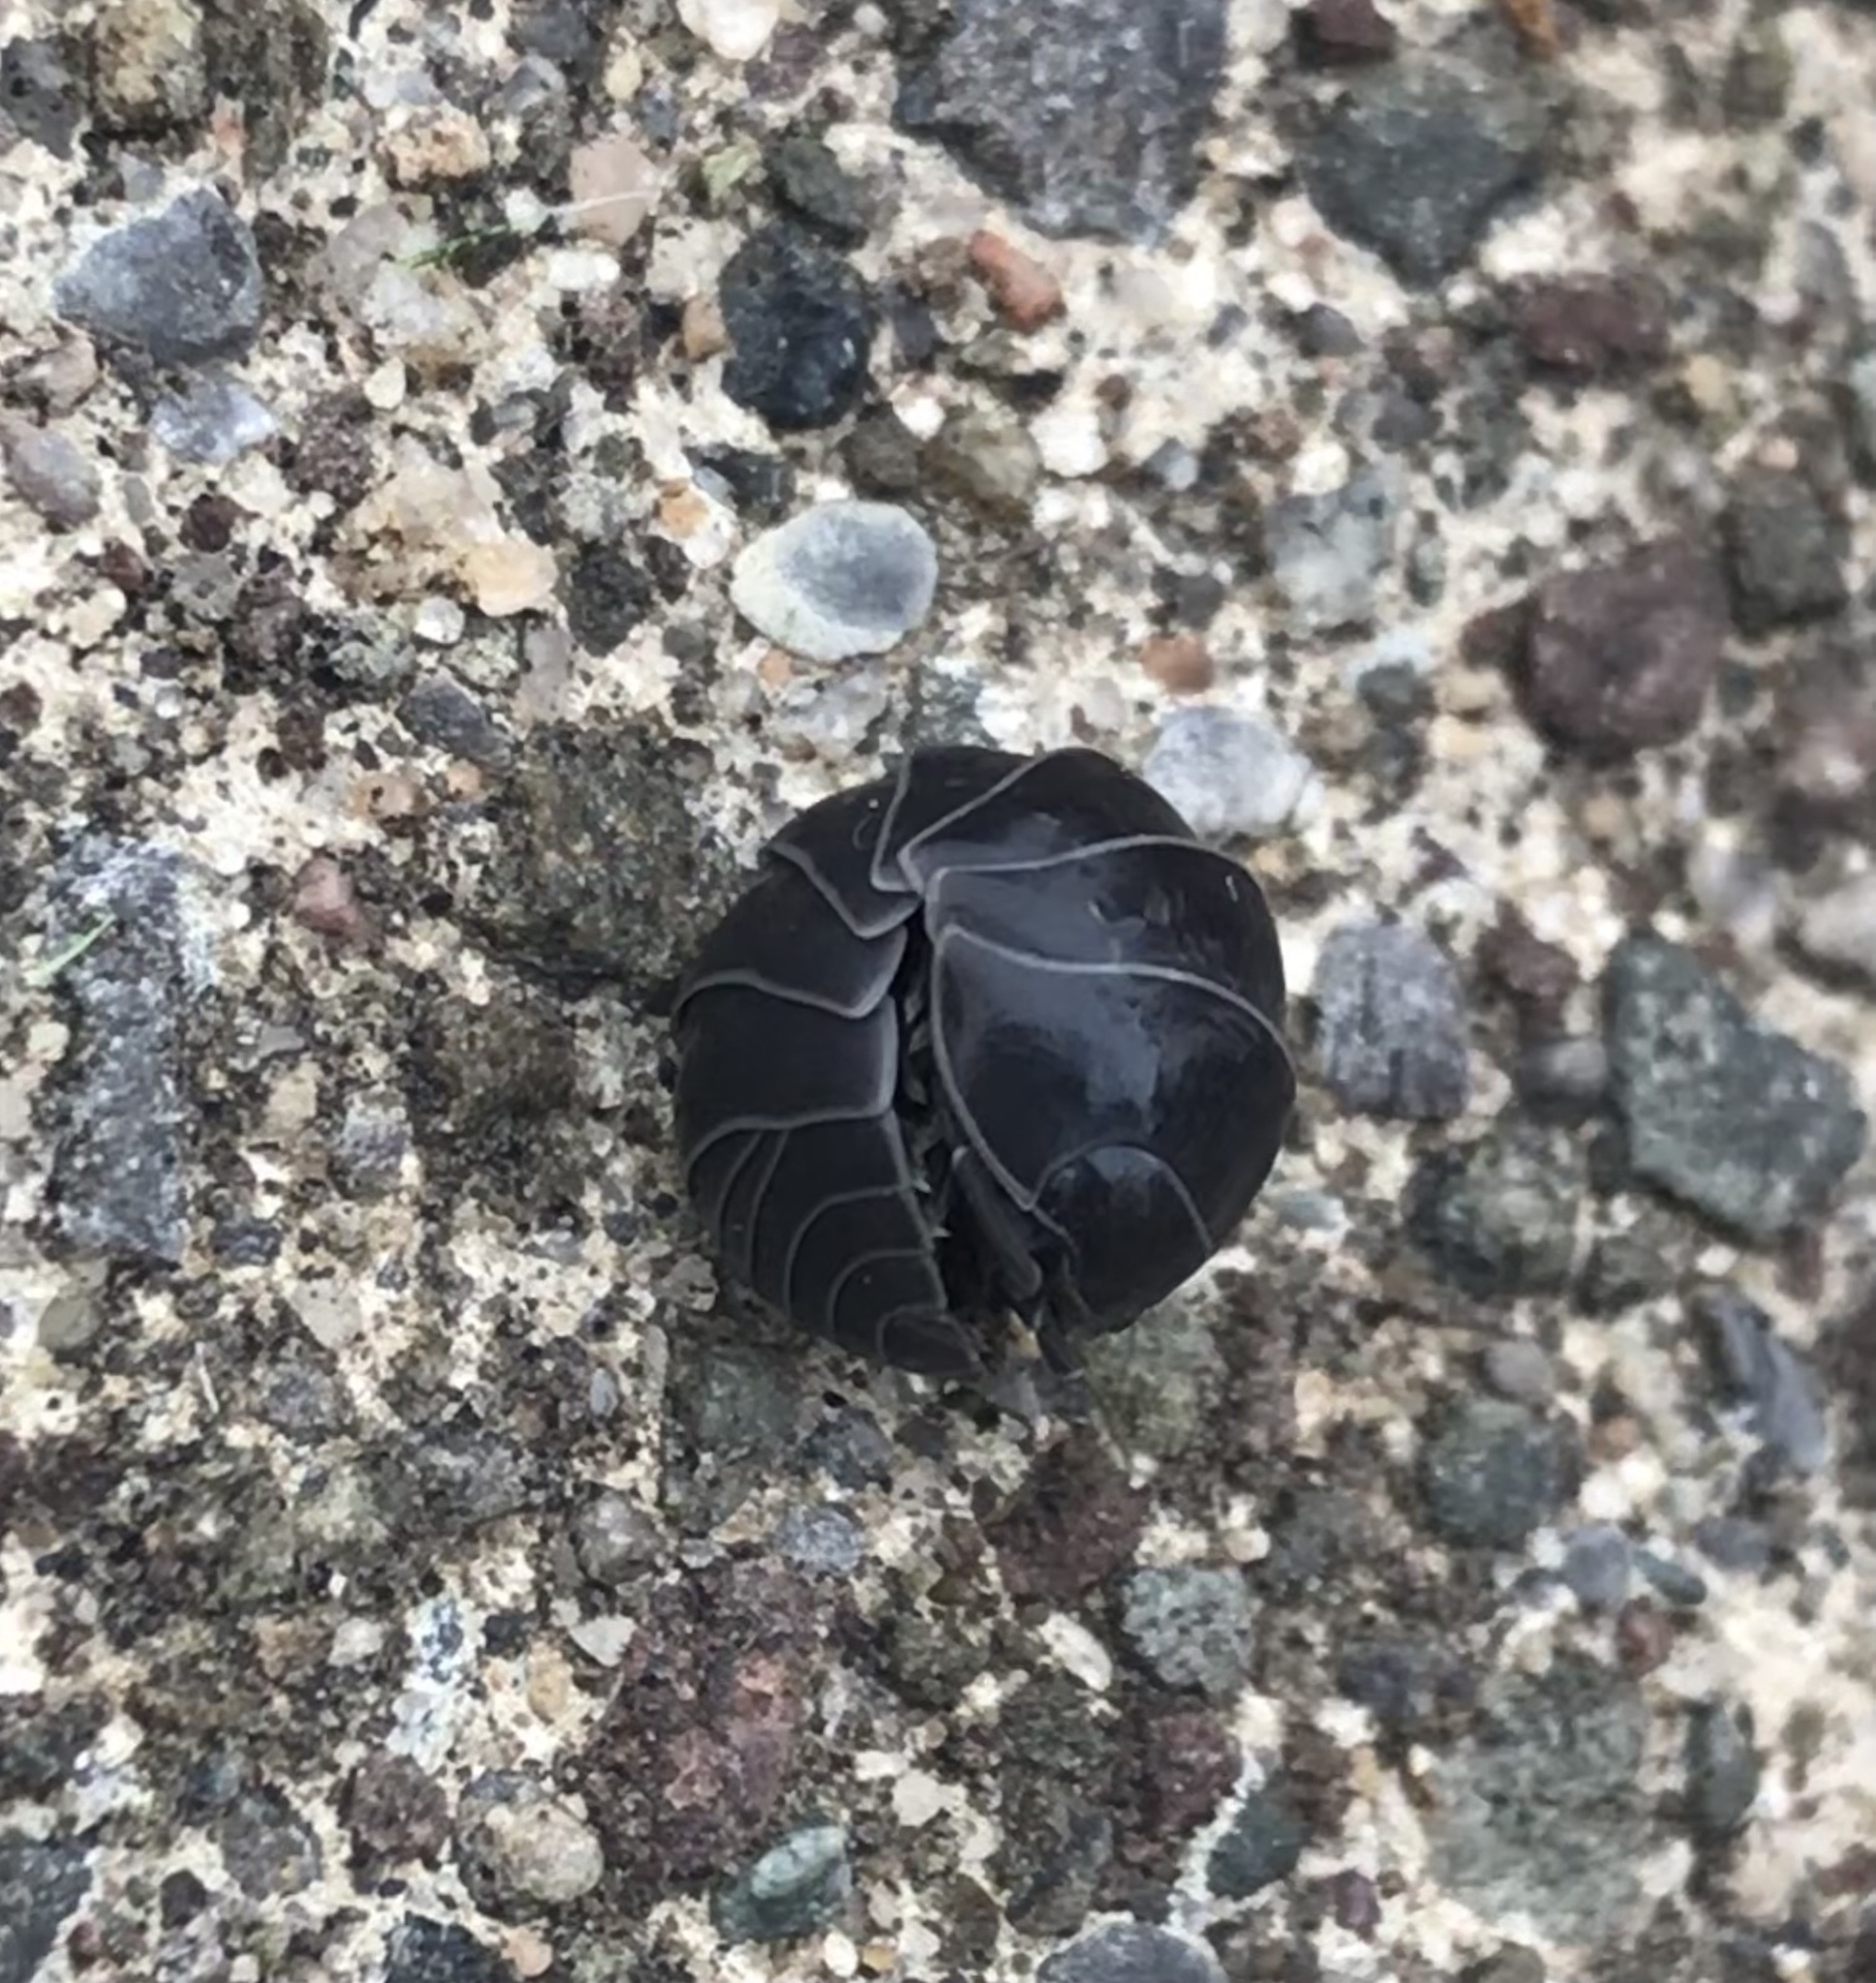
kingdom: Animalia
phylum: Arthropoda
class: Malacostraca
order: Isopoda
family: Armadillidiidae
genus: Armadillidium
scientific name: Armadillidium vulgare
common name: Common pill woodlouse
